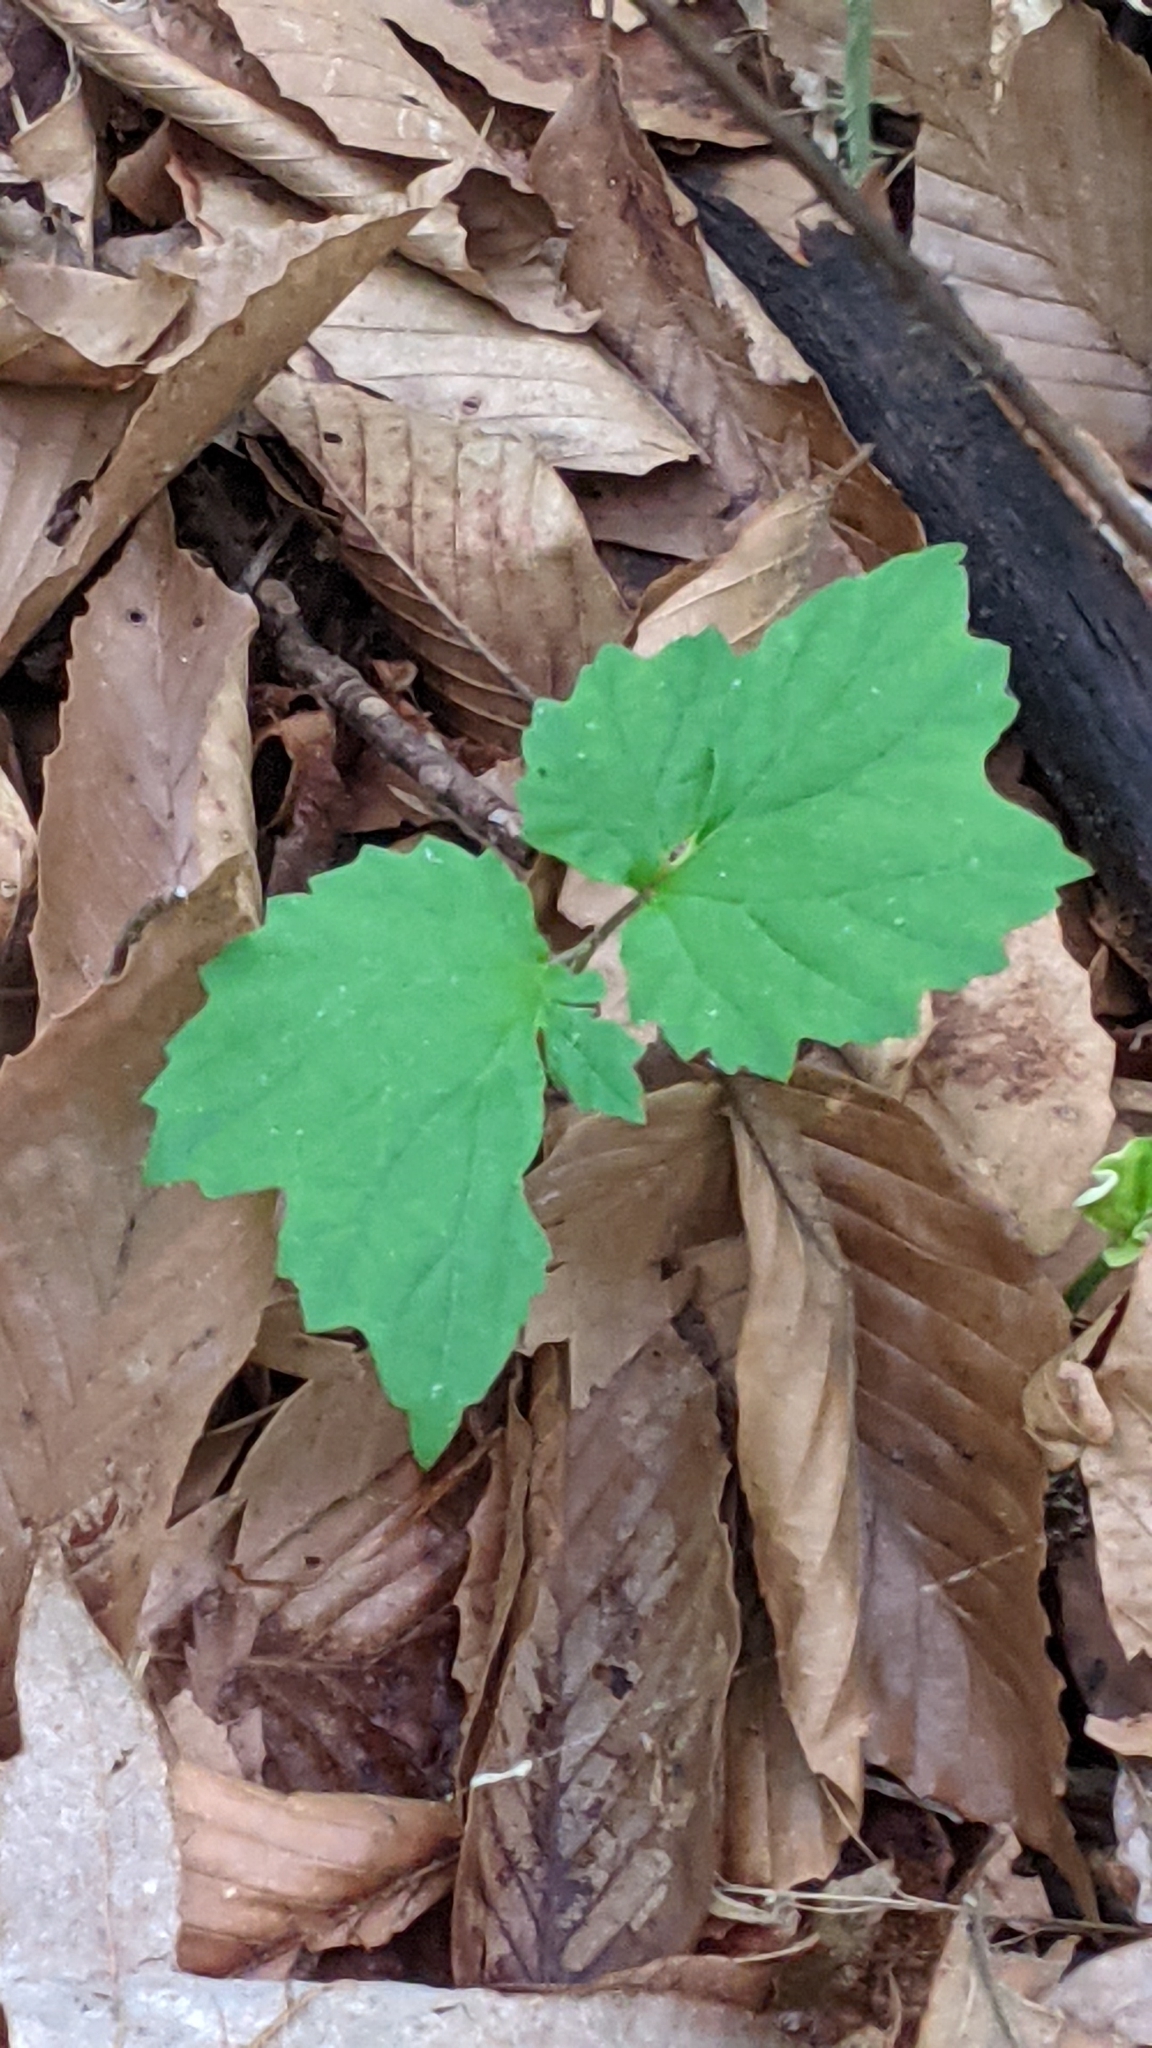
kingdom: Plantae
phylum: Tracheophyta
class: Magnoliopsida
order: Dipsacales
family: Viburnaceae
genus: Viburnum
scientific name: Viburnum acerifolium
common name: Dockmackie
